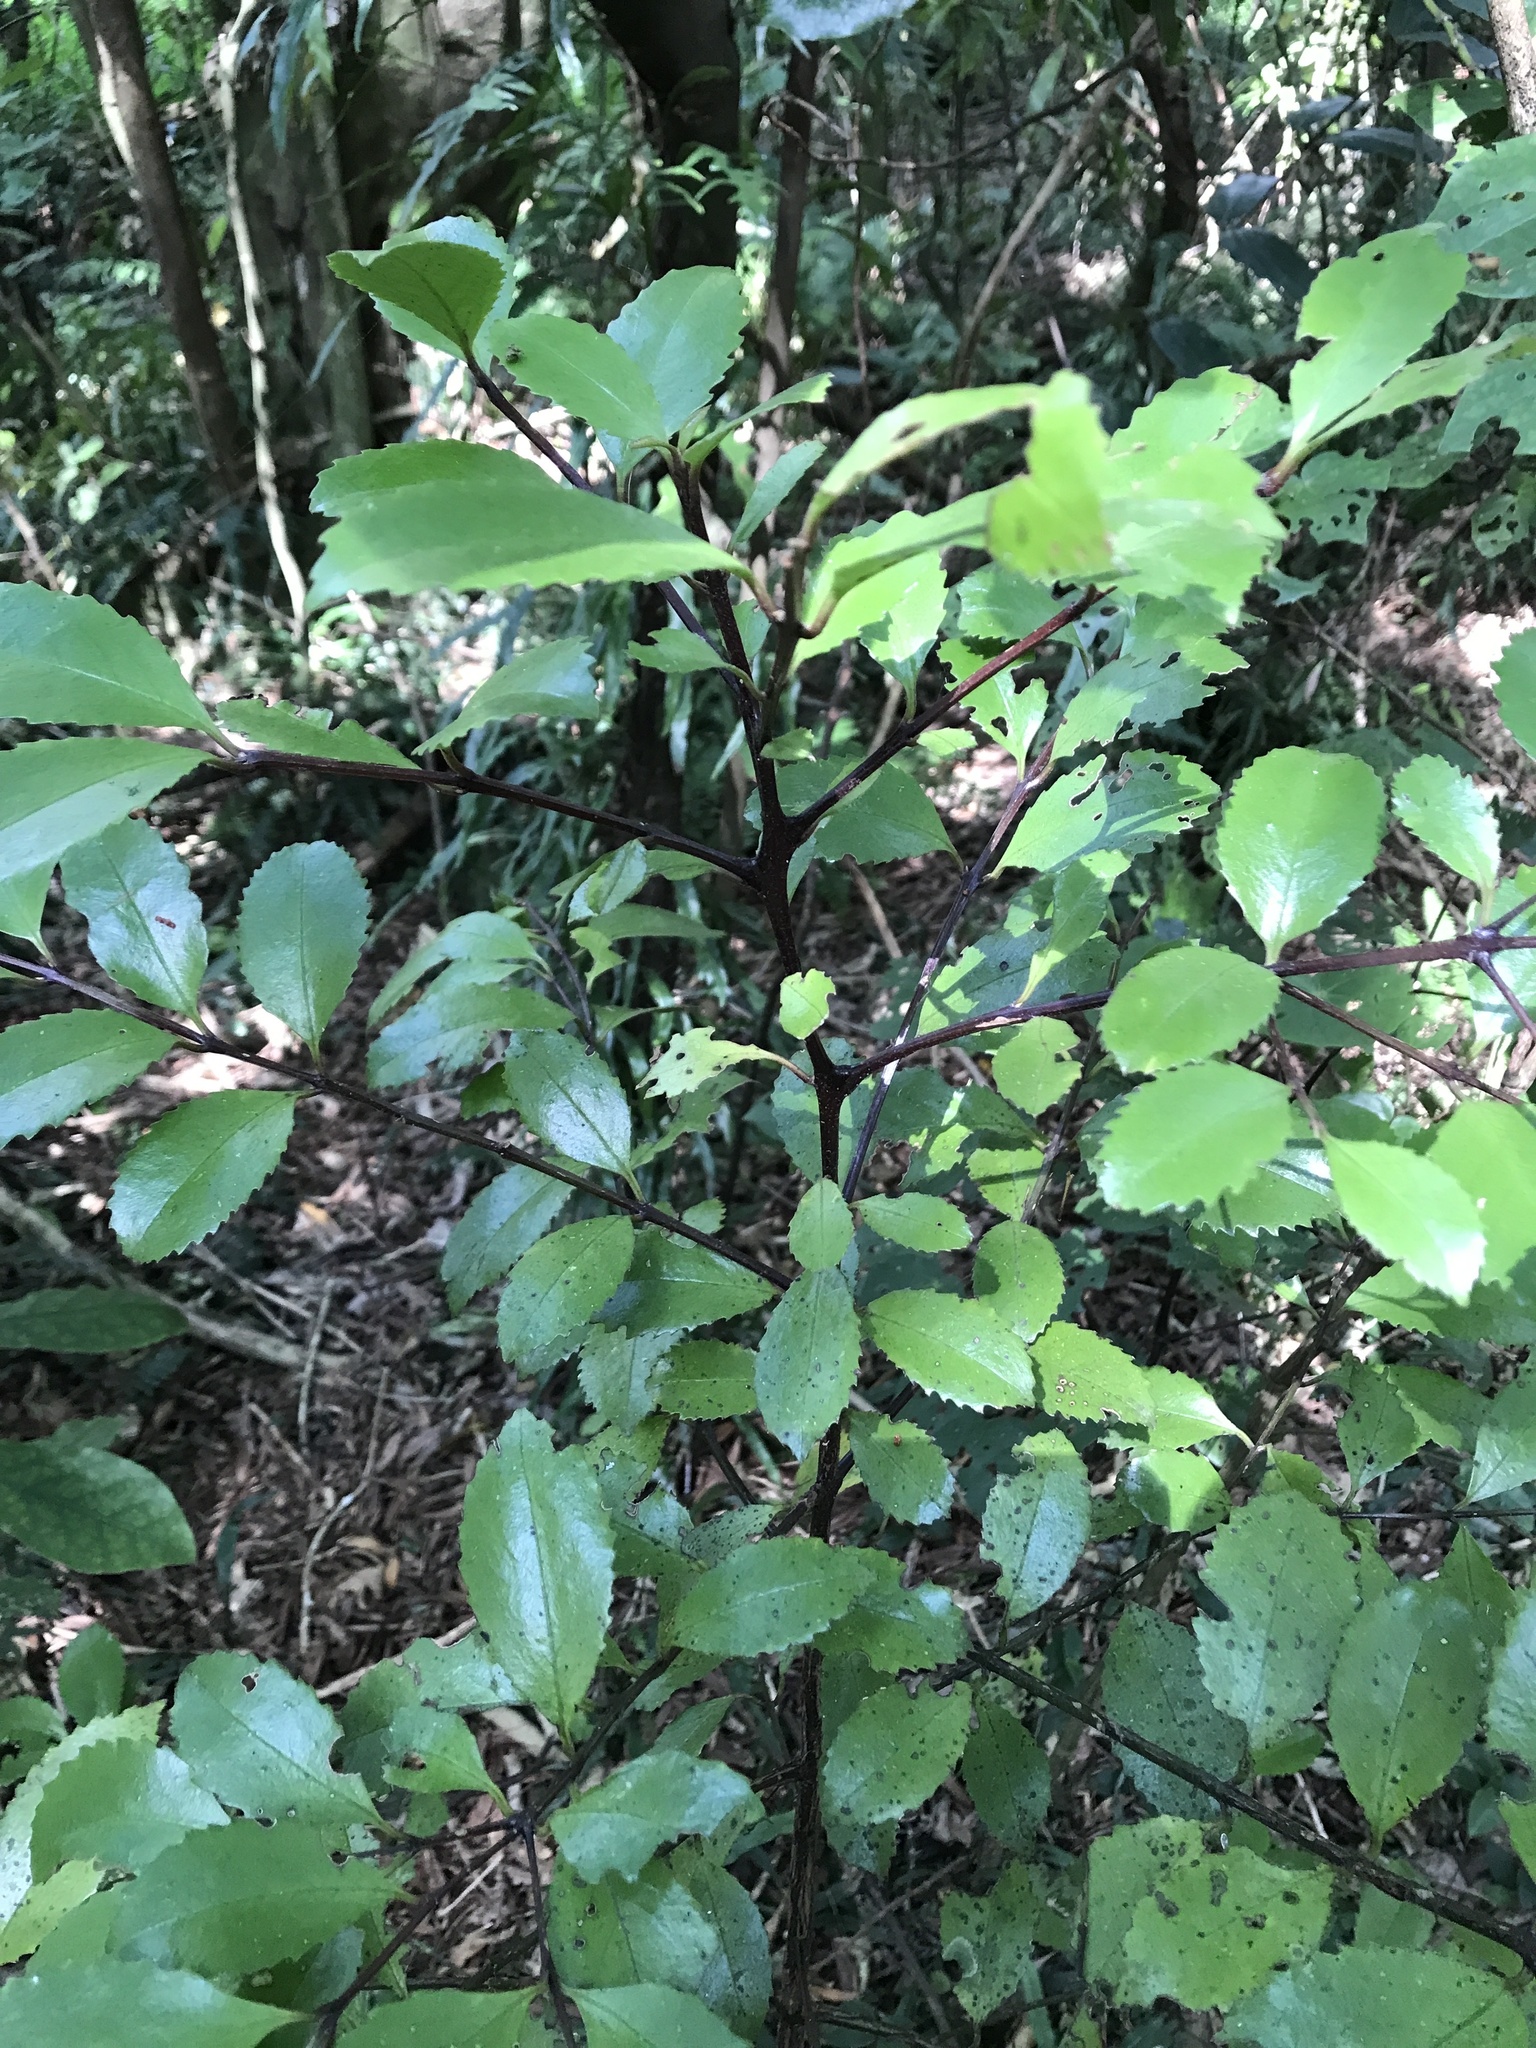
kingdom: Plantae
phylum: Tracheophyta
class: Magnoliopsida
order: Laurales
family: Atherospermataceae
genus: Laurelia
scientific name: Laurelia novae-zelandiae
